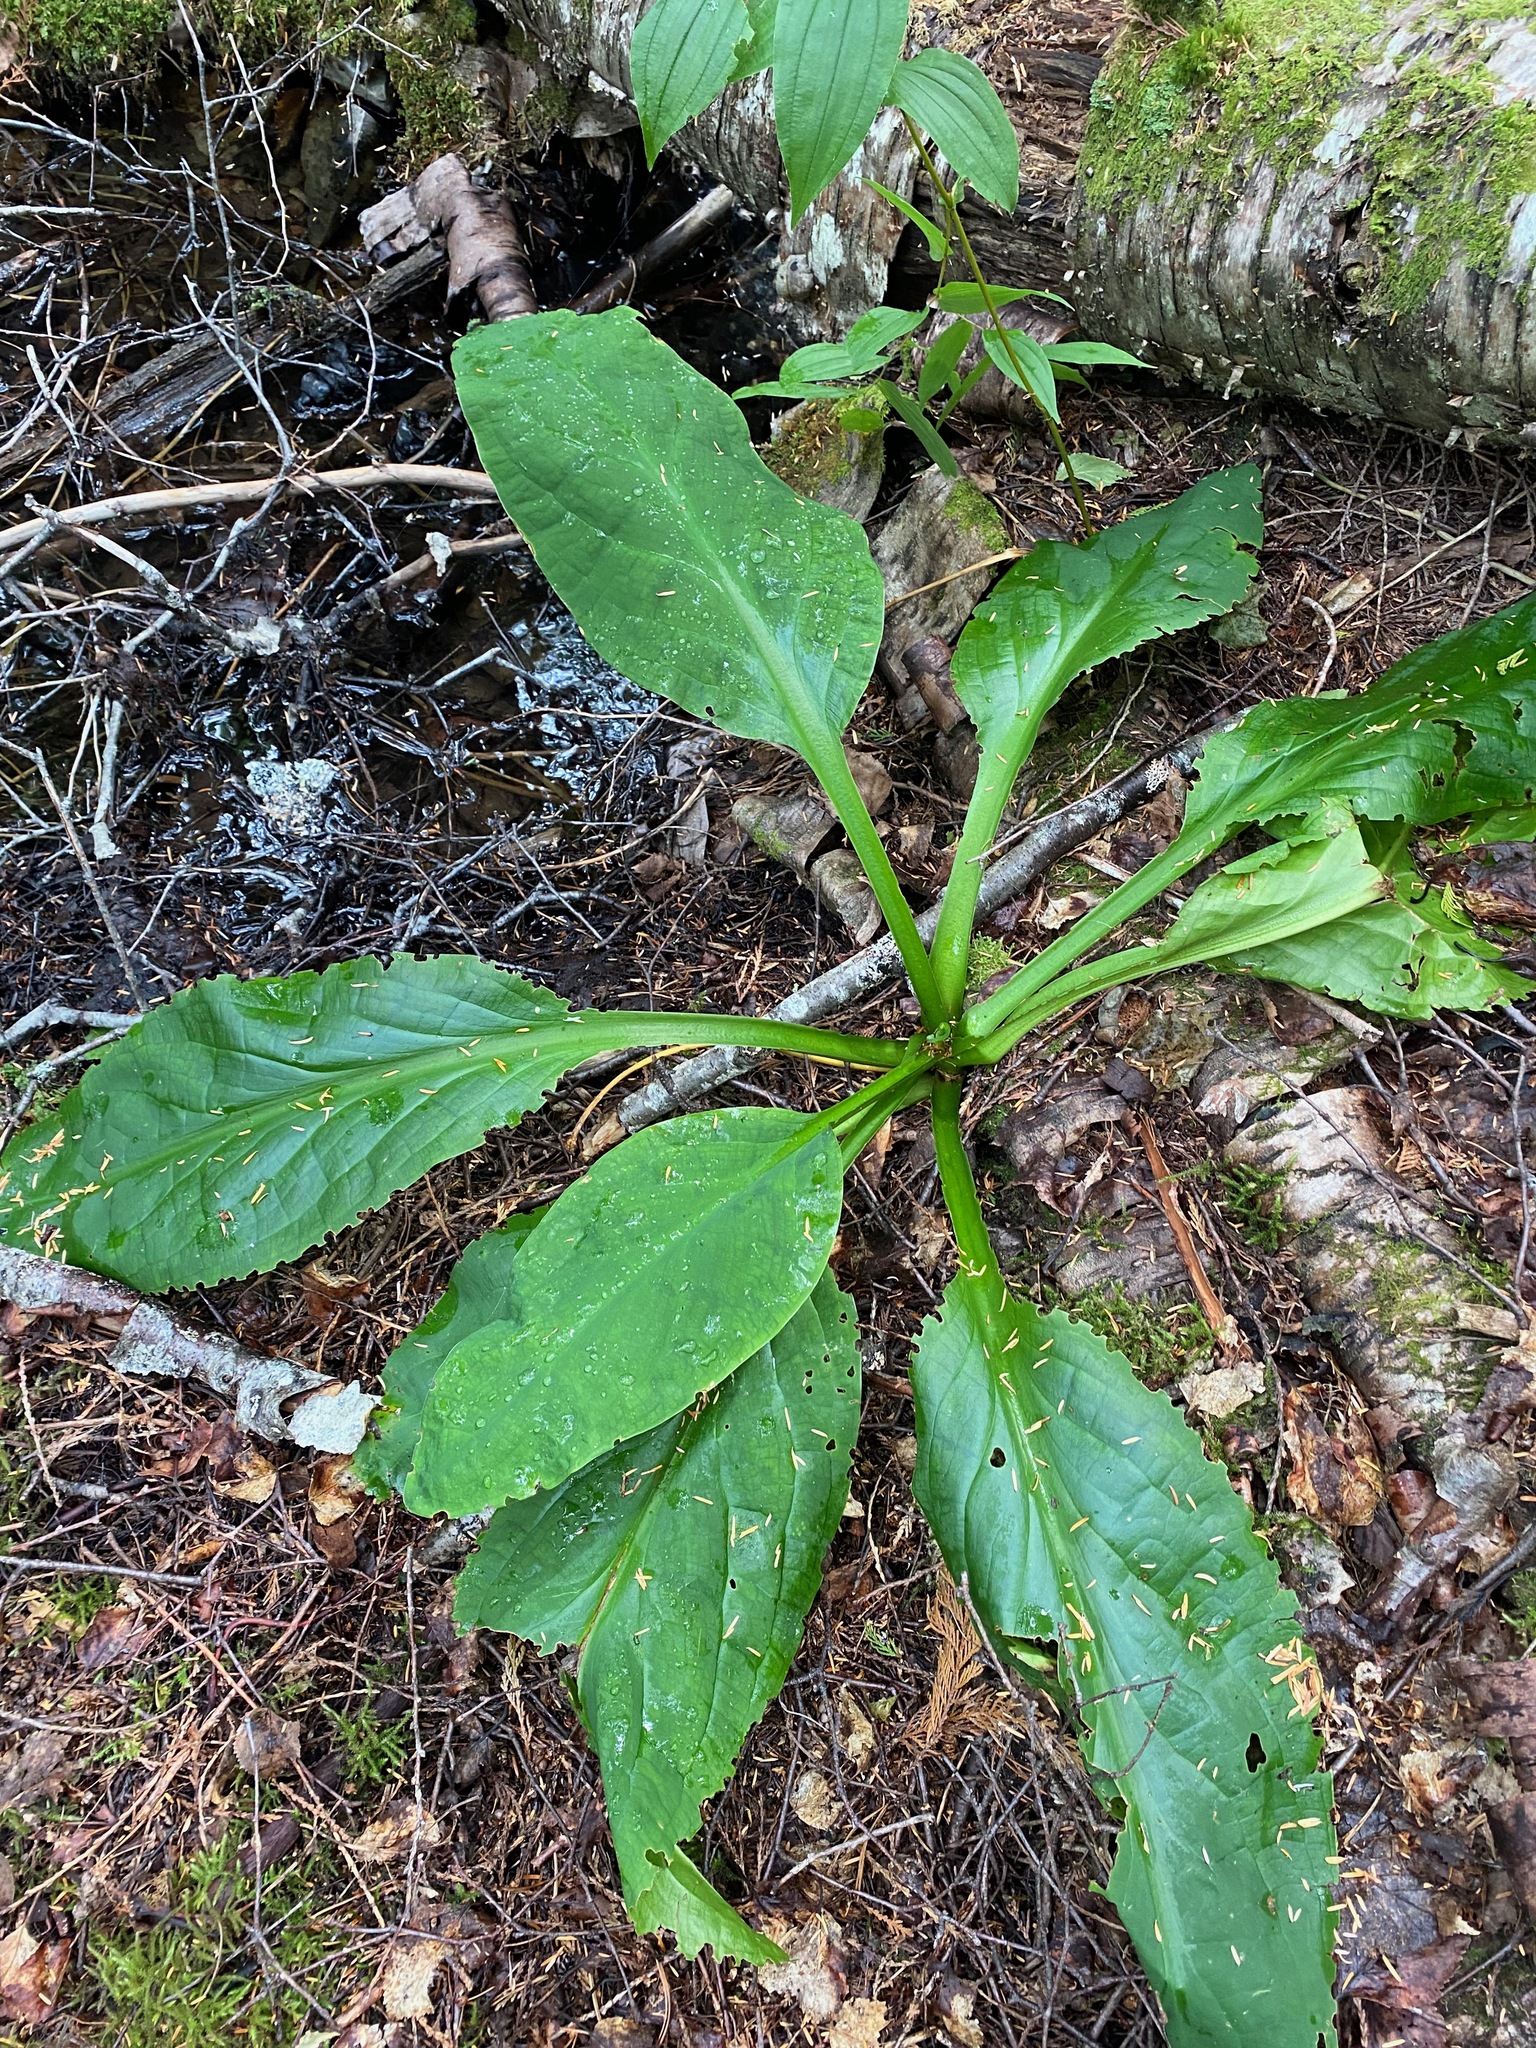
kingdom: Plantae
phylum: Tracheophyta
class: Liliopsida
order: Alismatales
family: Araceae
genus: Lysichiton
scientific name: Lysichiton americanus
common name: American skunk cabbage
